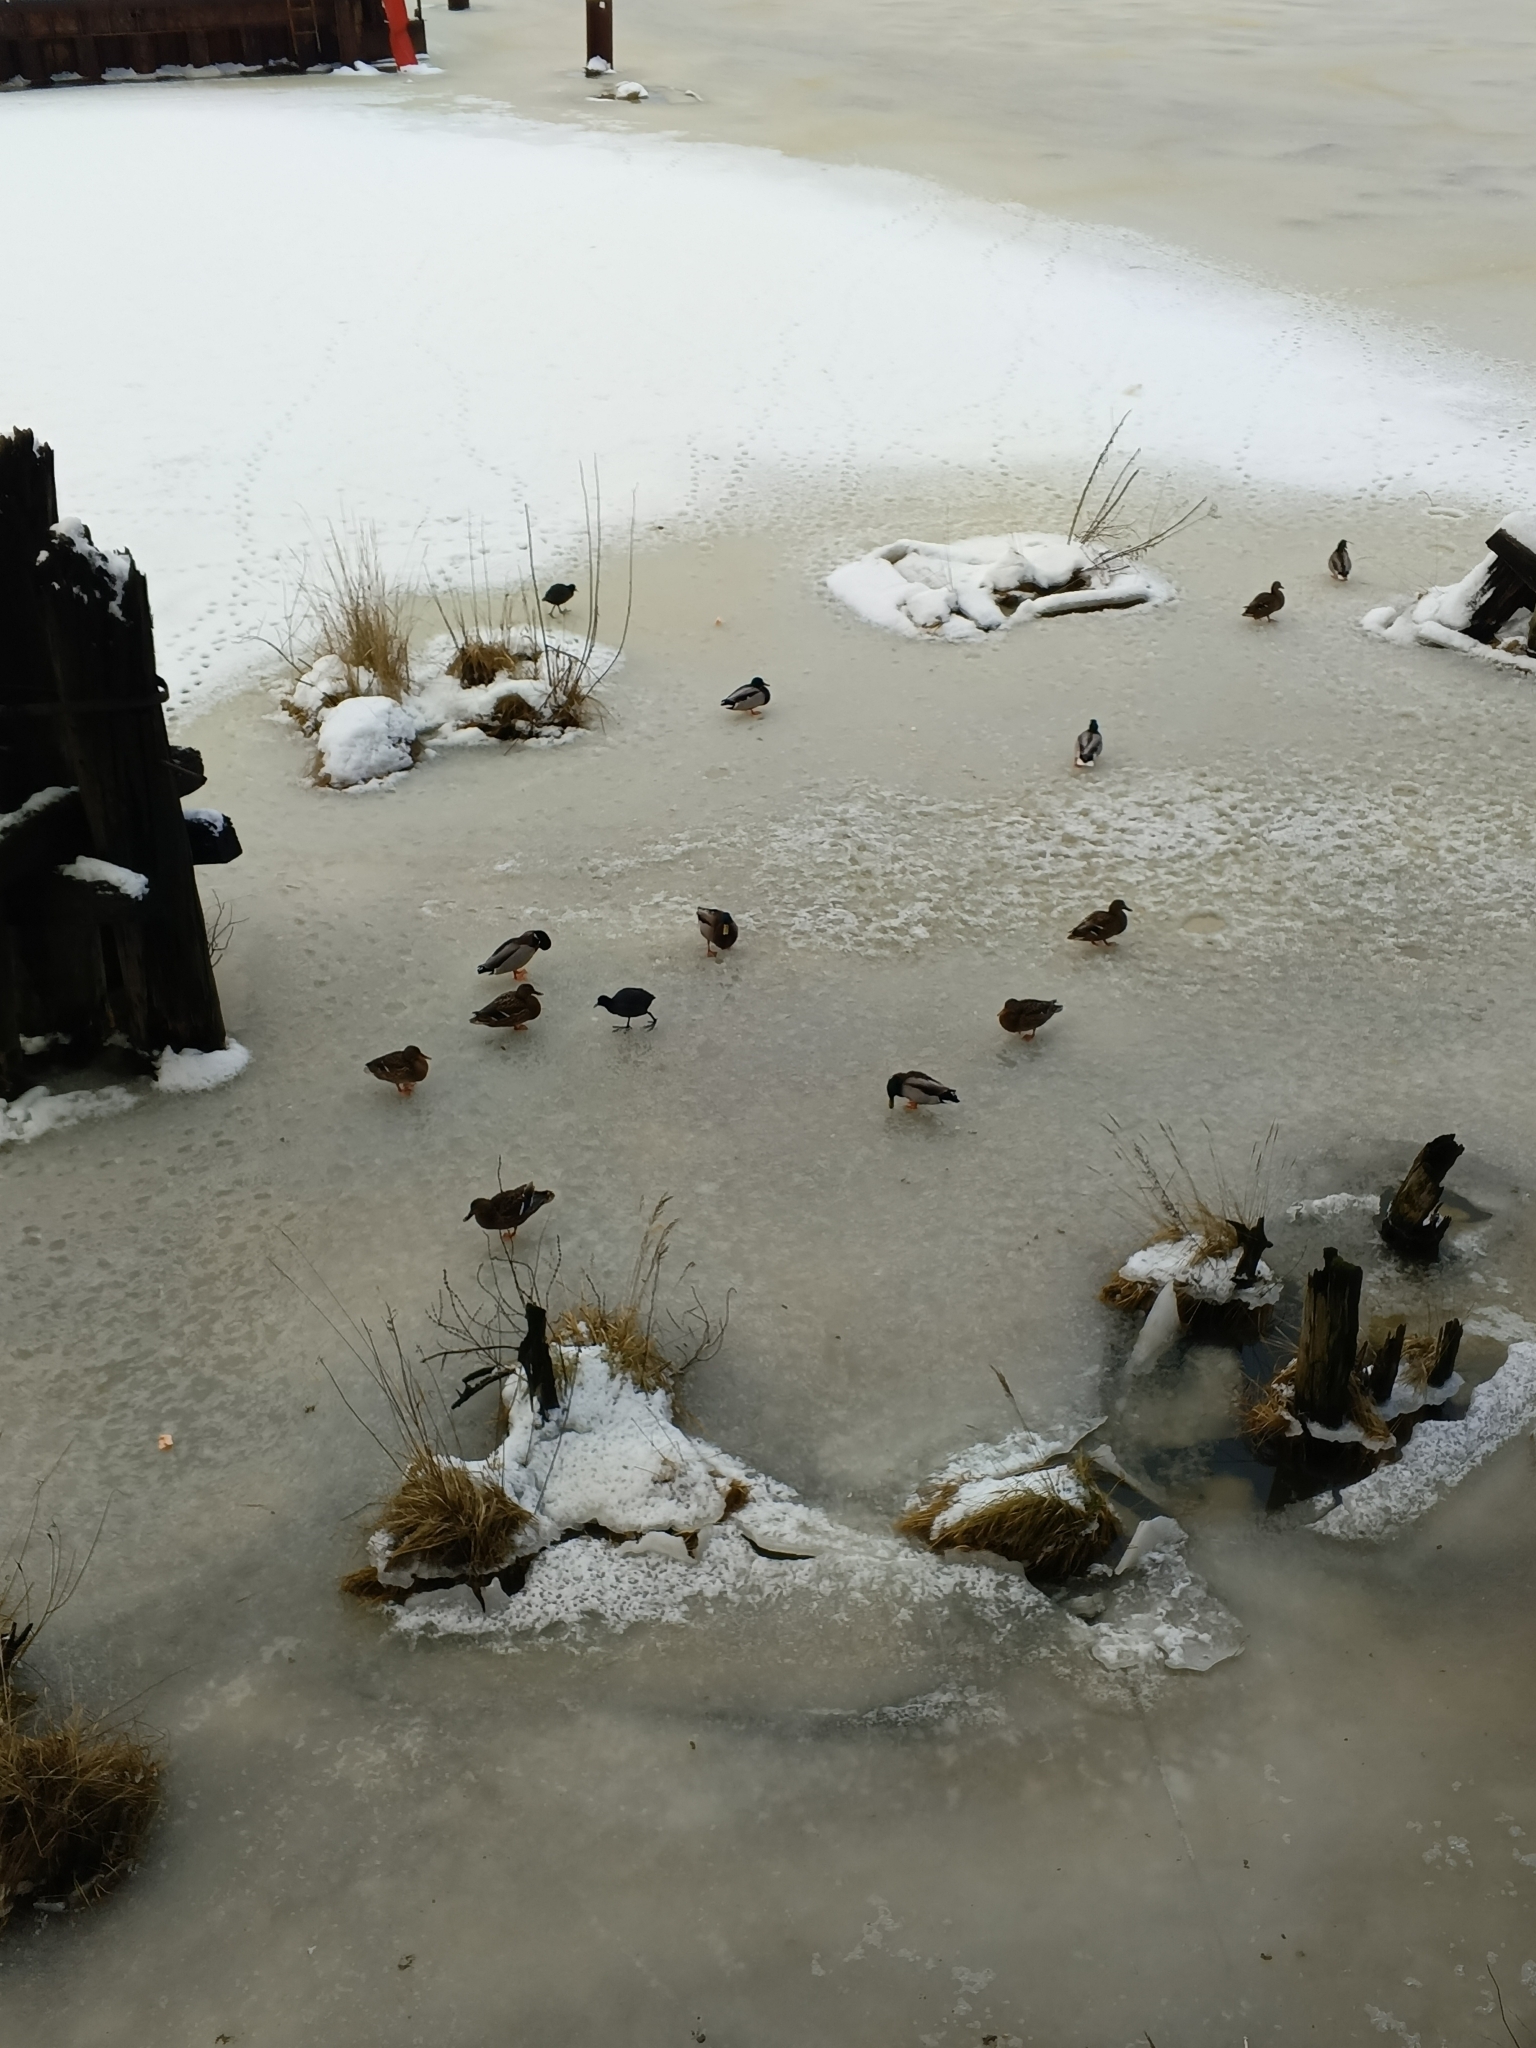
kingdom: Animalia
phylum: Chordata
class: Aves
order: Anseriformes
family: Anatidae
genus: Anas
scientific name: Anas platyrhynchos
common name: Mallard
